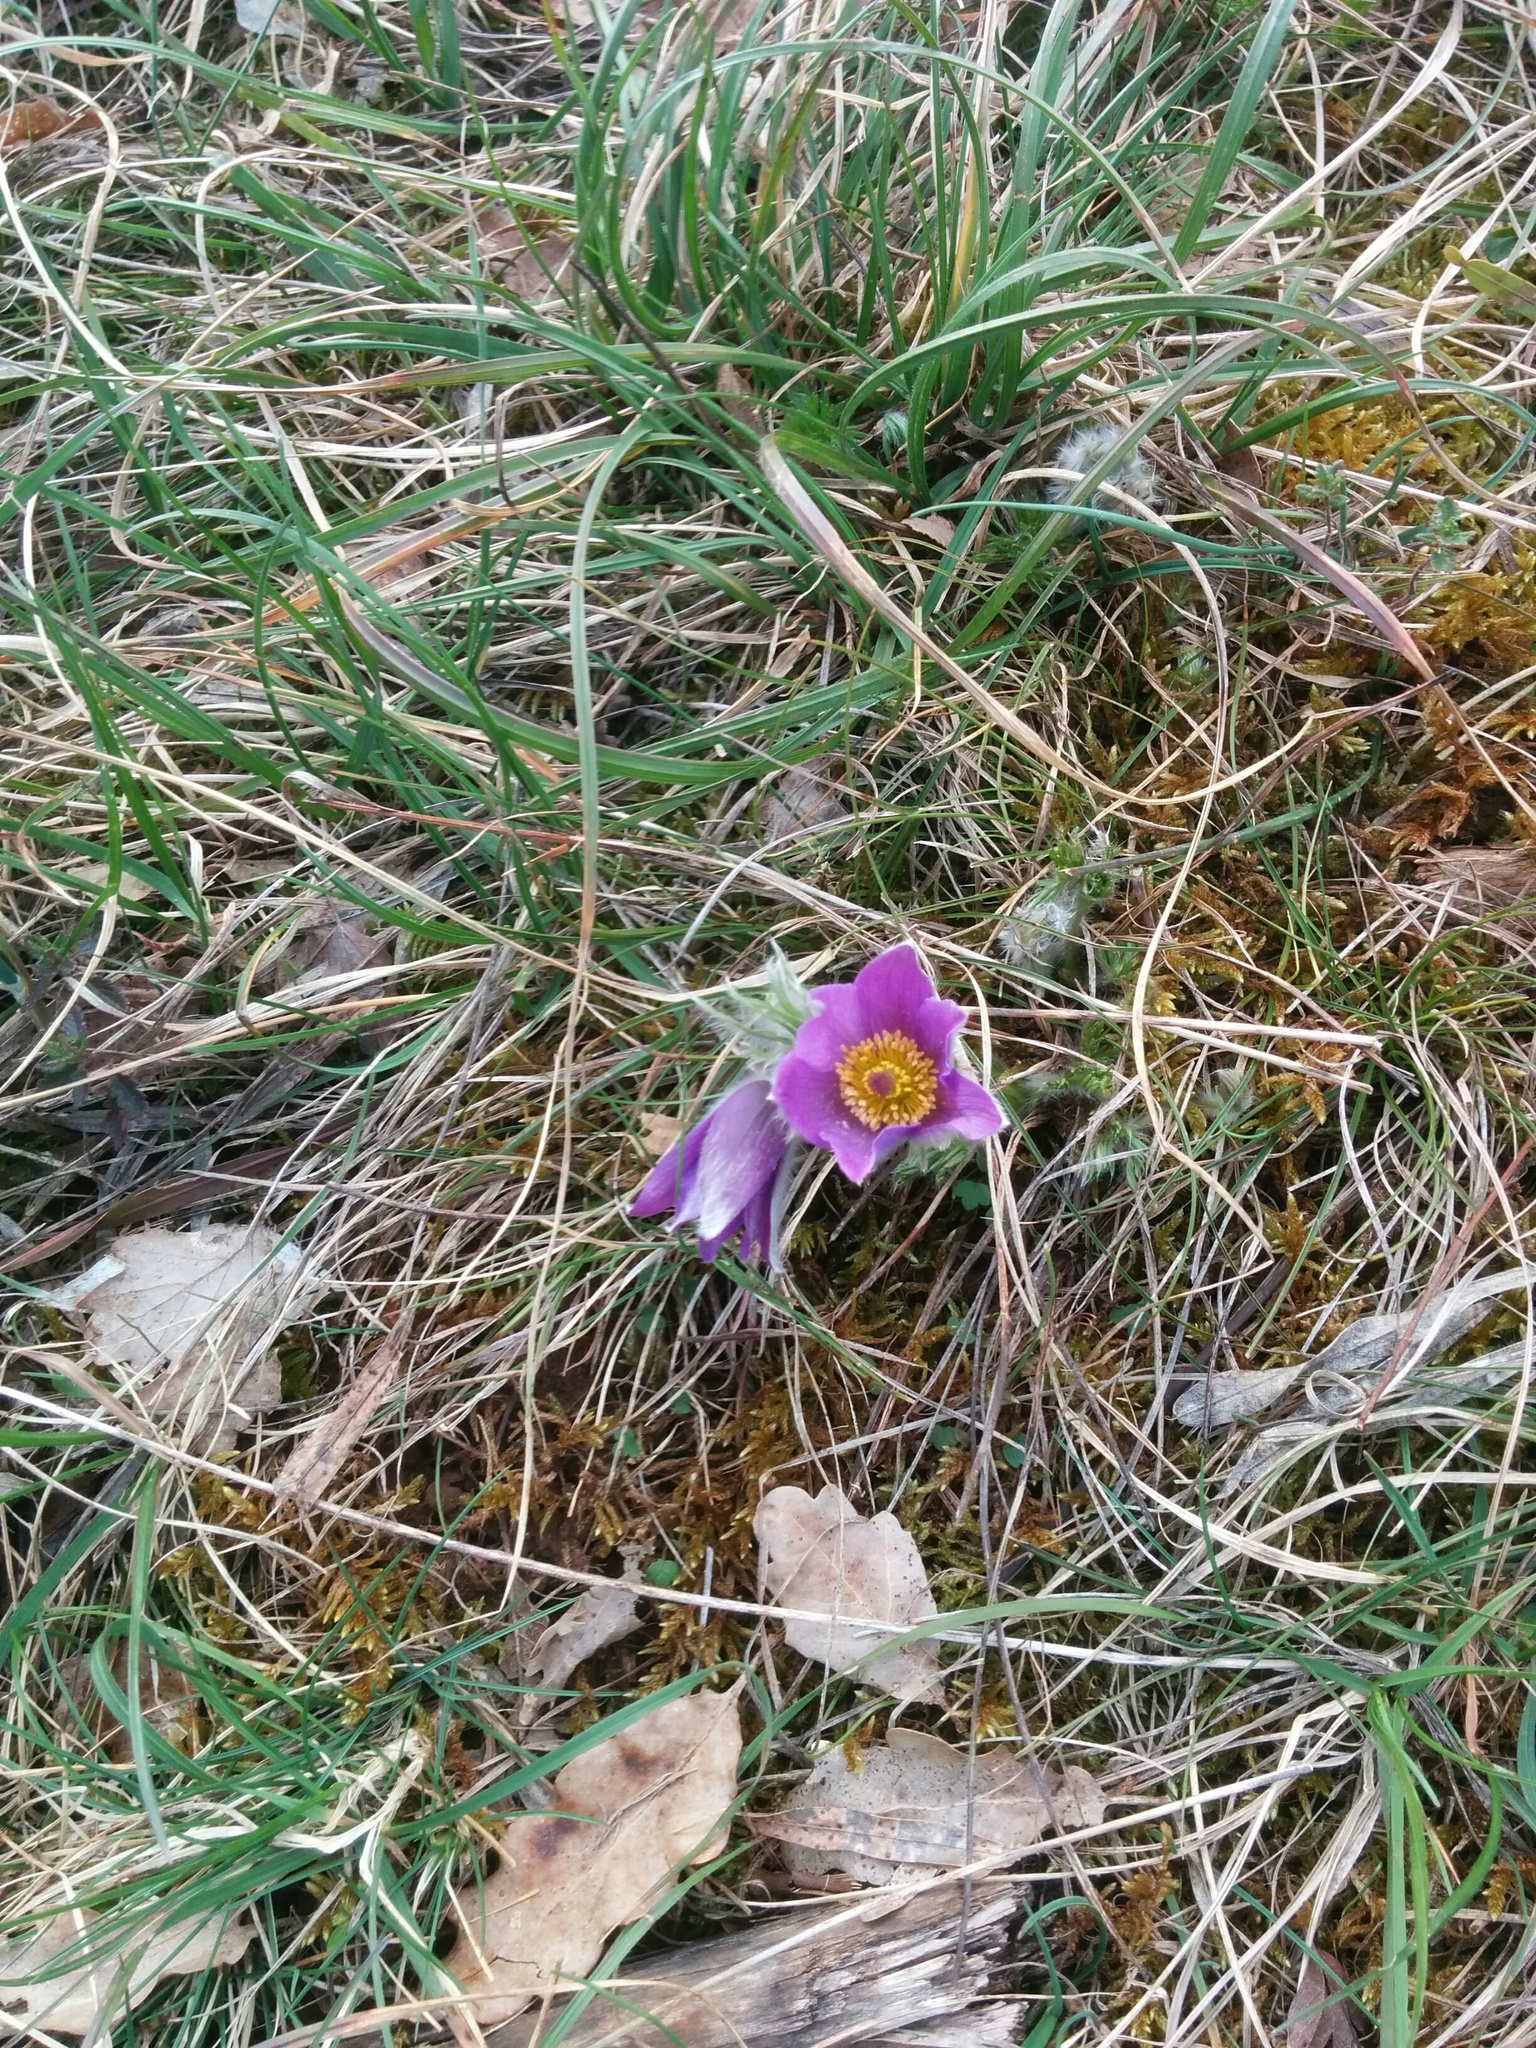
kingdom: Plantae
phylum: Tracheophyta
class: Magnoliopsida
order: Ranunculales
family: Ranunculaceae
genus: Pulsatilla
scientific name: Pulsatilla vulgaris
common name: Pasqueflower
